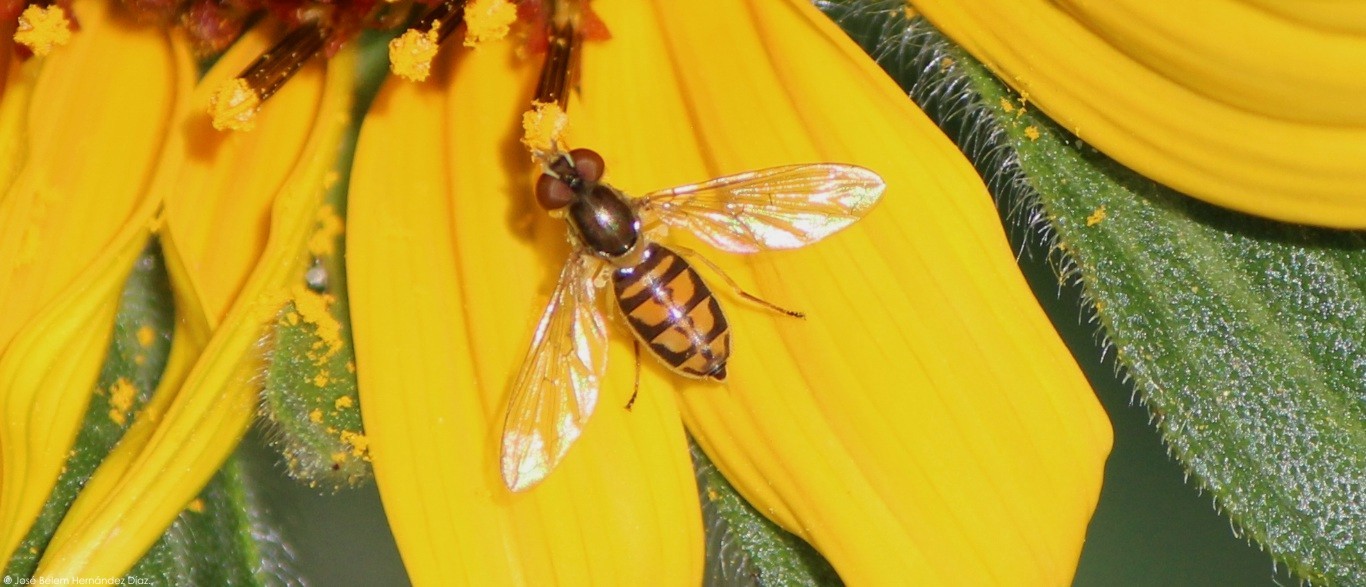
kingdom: Animalia
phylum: Arthropoda
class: Insecta
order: Diptera
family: Syrphidae
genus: Toxomerus
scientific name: Toxomerus marginatus
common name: Syrphid fly
